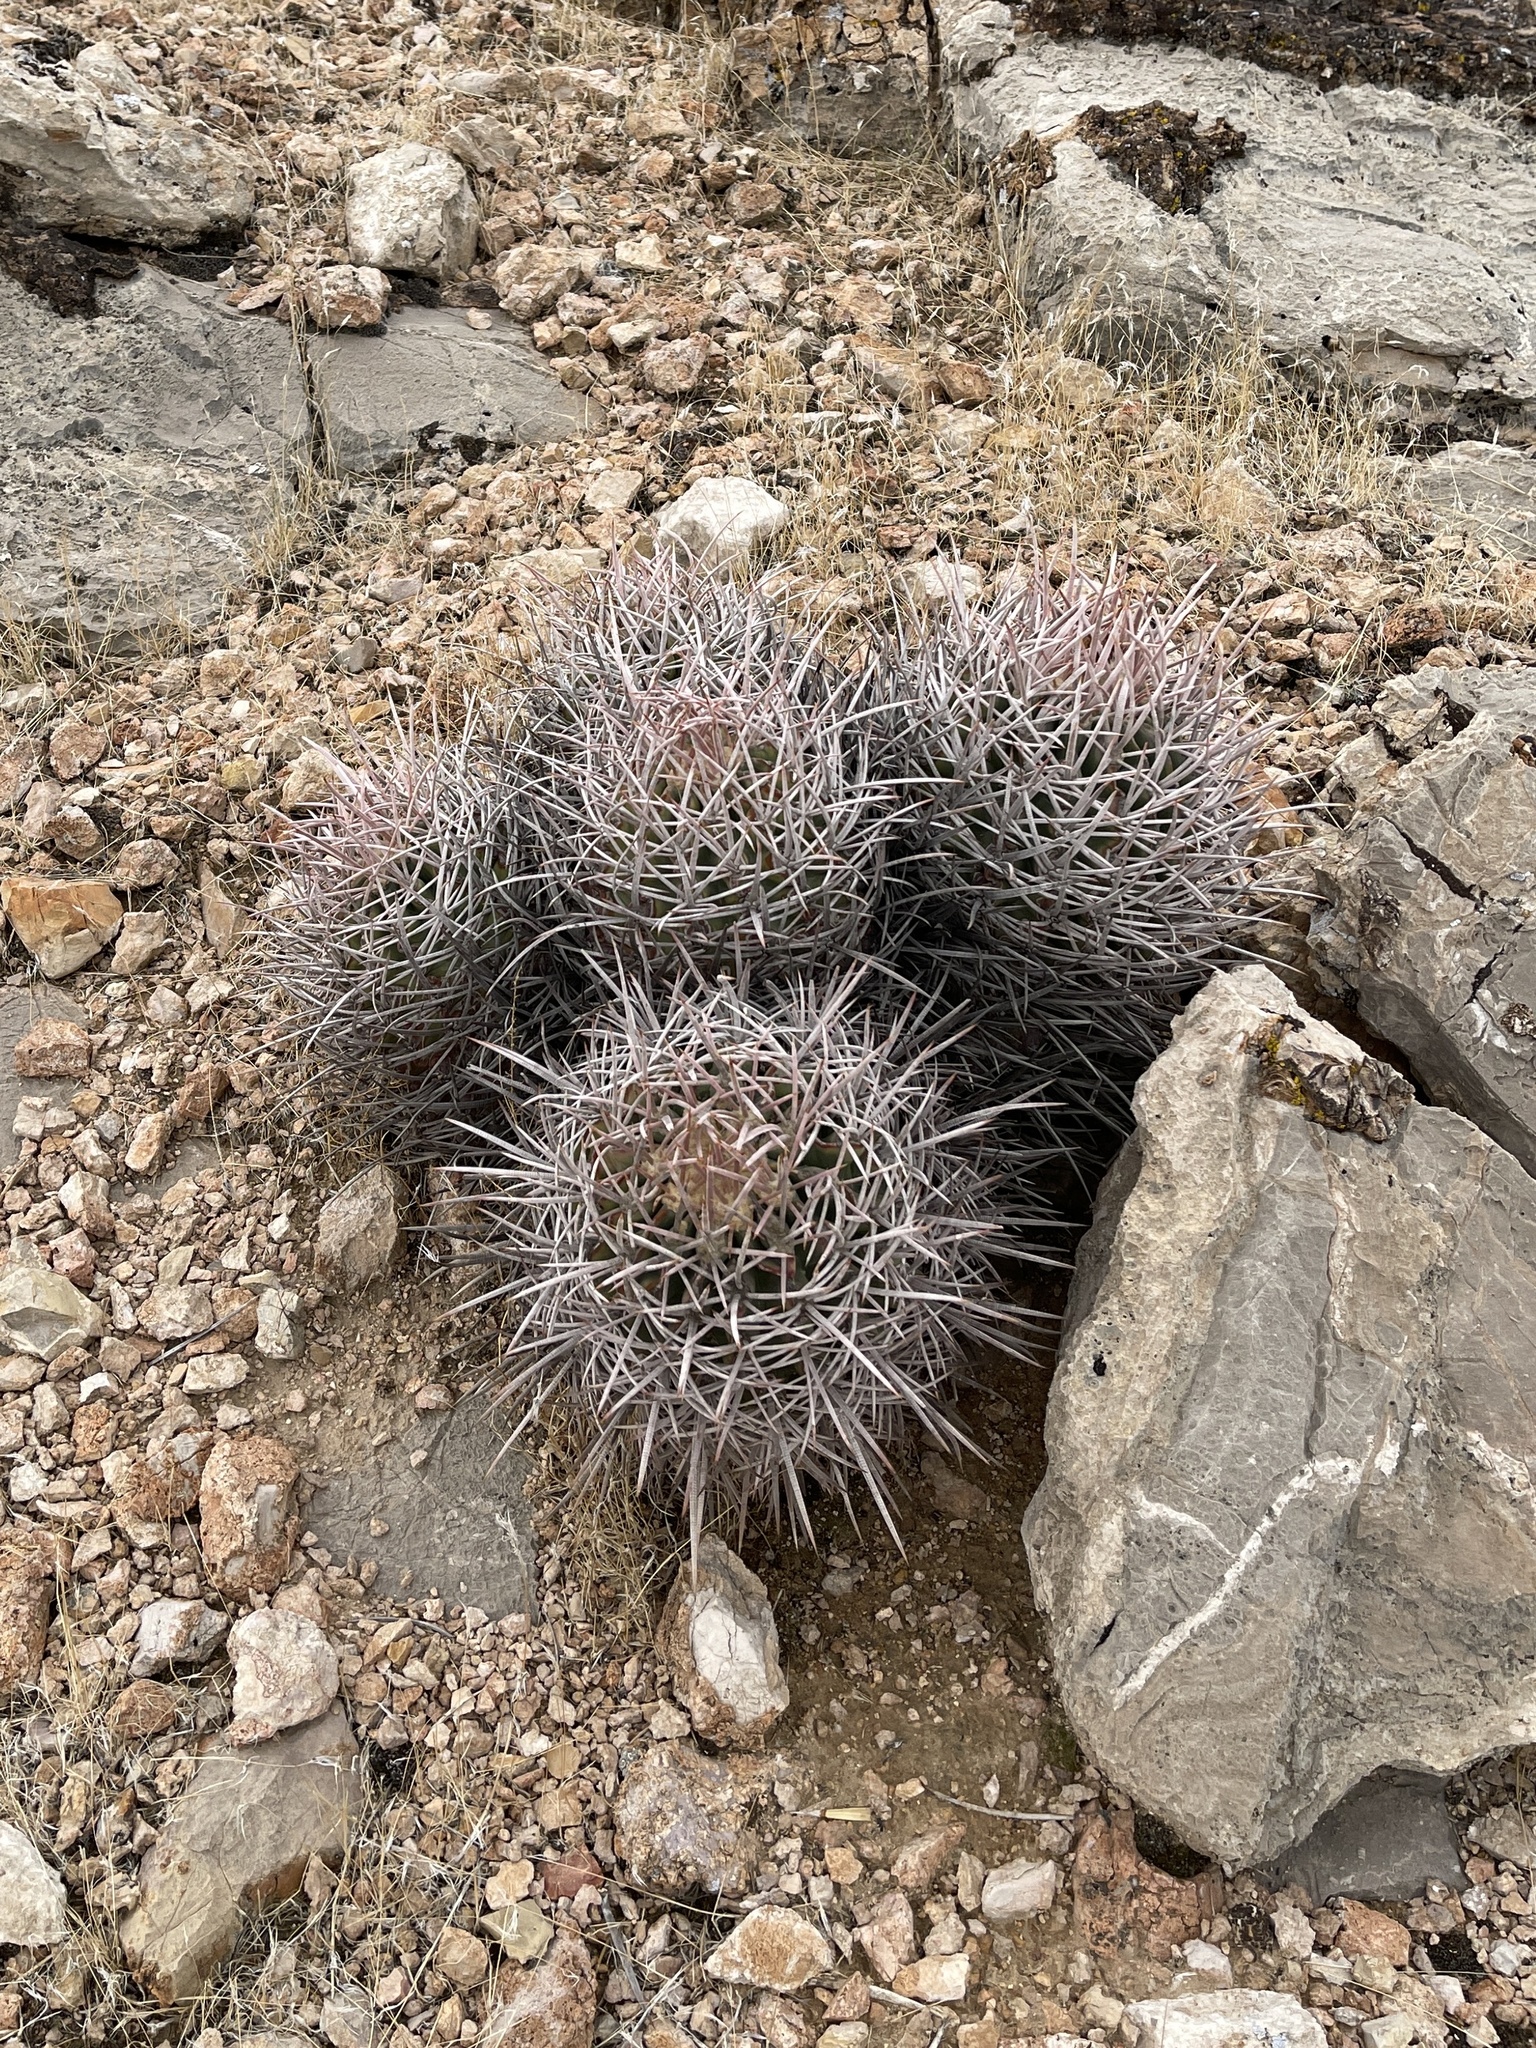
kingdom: Plantae
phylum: Tracheophyta
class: Magnoliopsida
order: Caryophyllales
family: Cactaceae
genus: Echinocactus
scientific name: Echinocactus polycephalus
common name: Cottontop cactus
